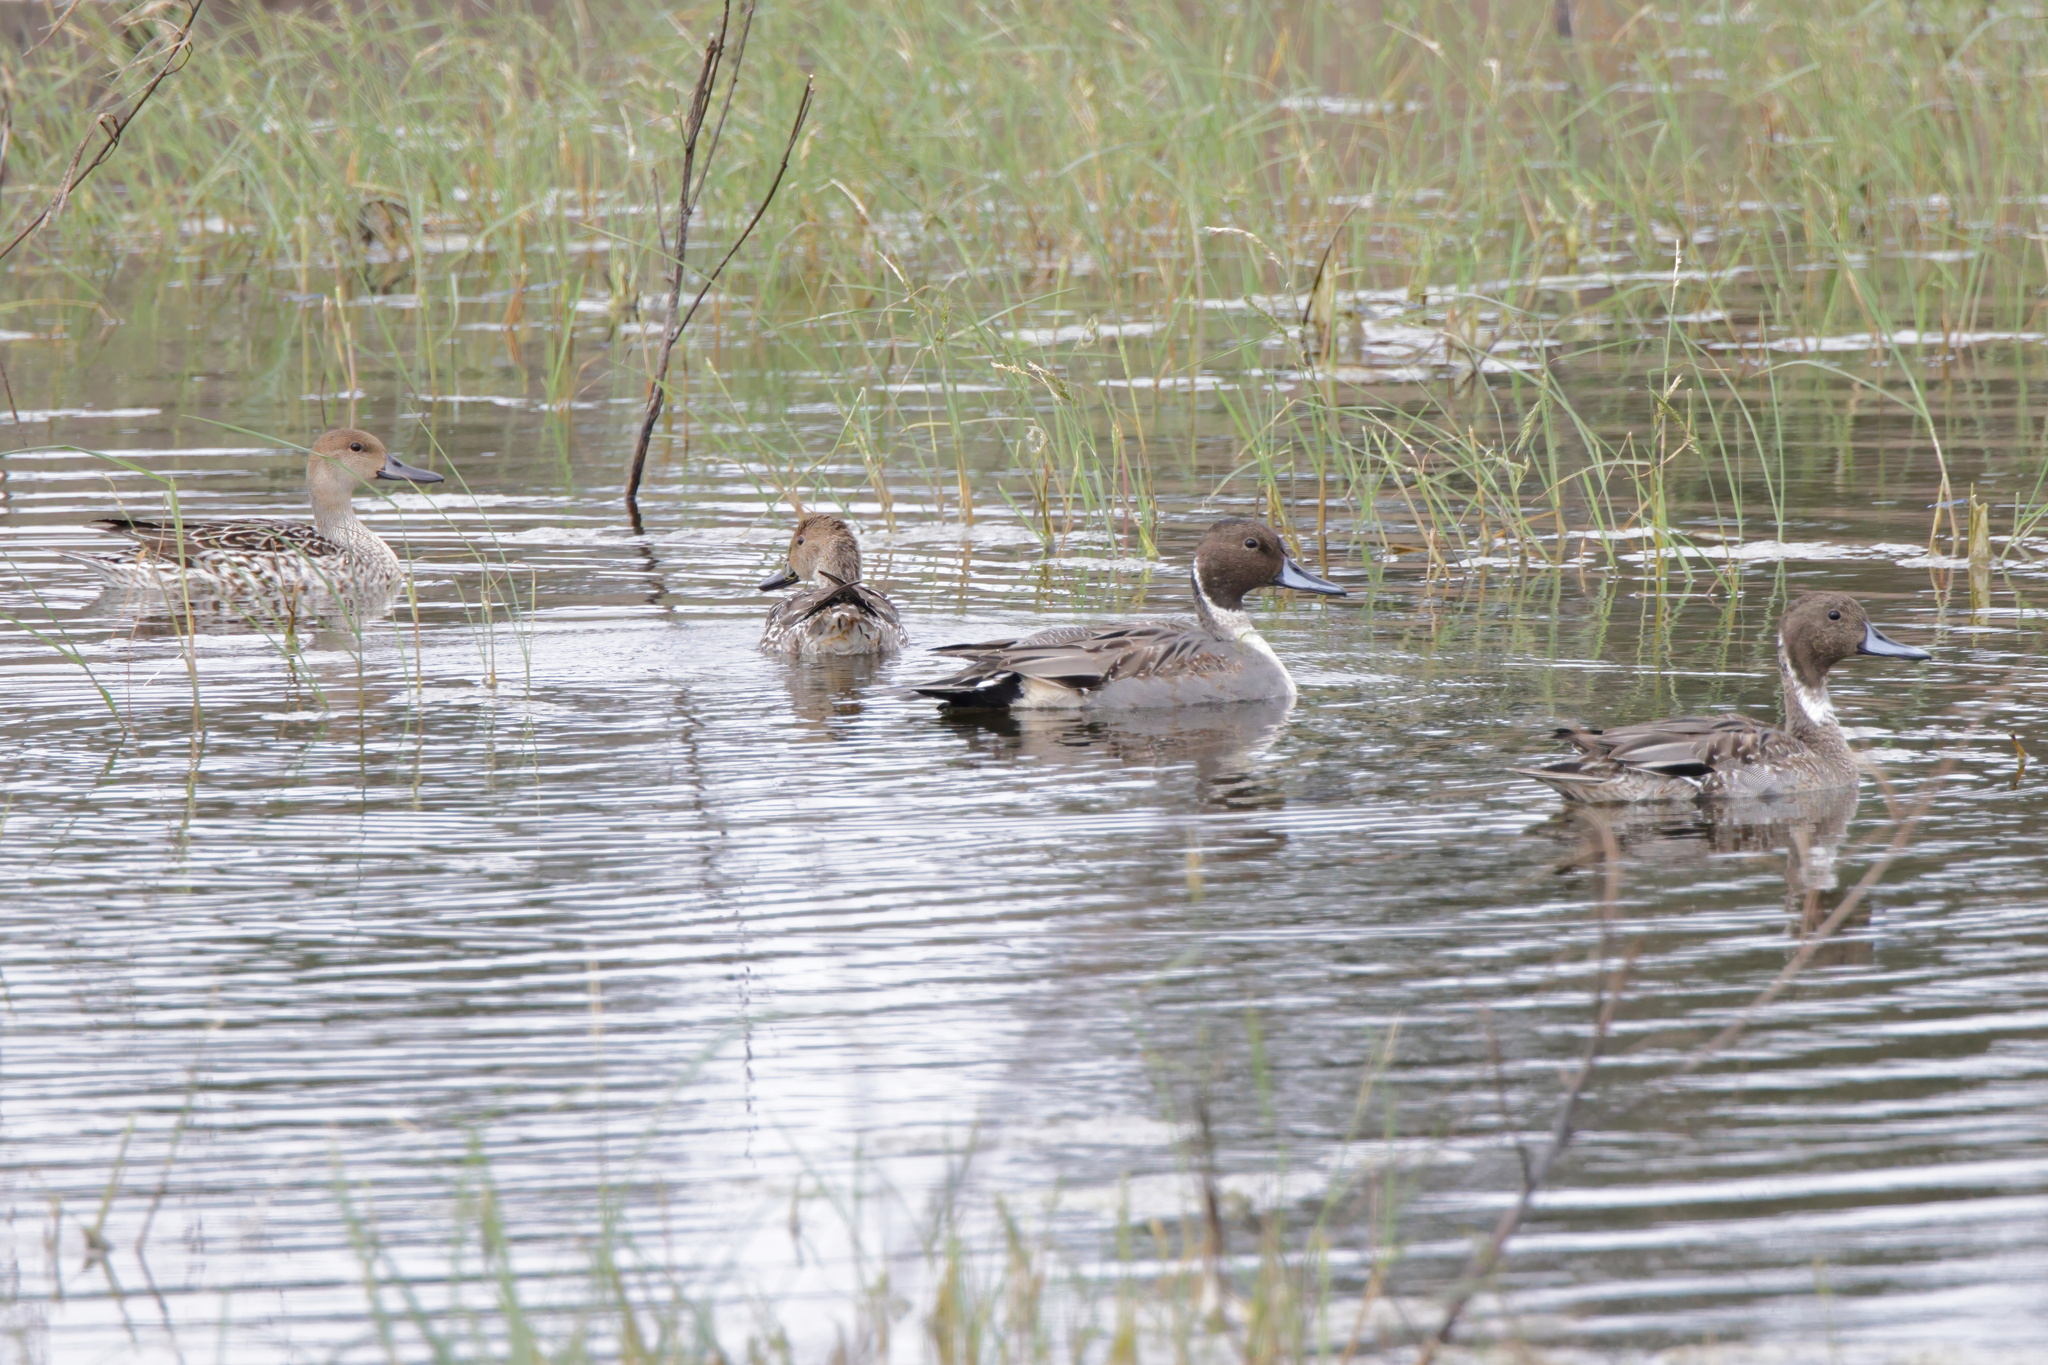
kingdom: Animalia
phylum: Chordata
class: Aves
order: Anseriformes
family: Anatidae
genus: Anas
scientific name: Anas acuta
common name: Northern pintail
